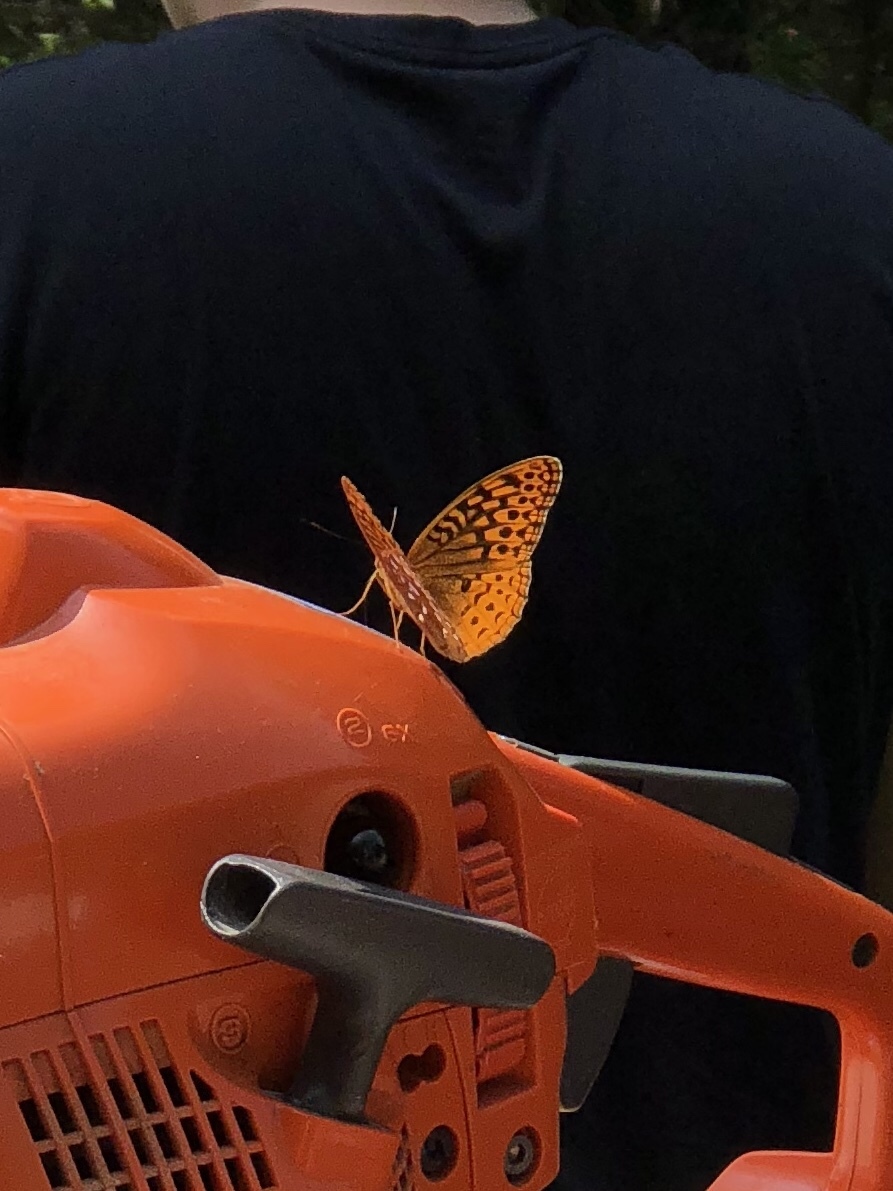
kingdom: Animalia
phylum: Arthropoda
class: Insecta
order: Lepidoptera
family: Nymphalidae
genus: Speyeria
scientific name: Speyeria cybele
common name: Great spangled fritillary
